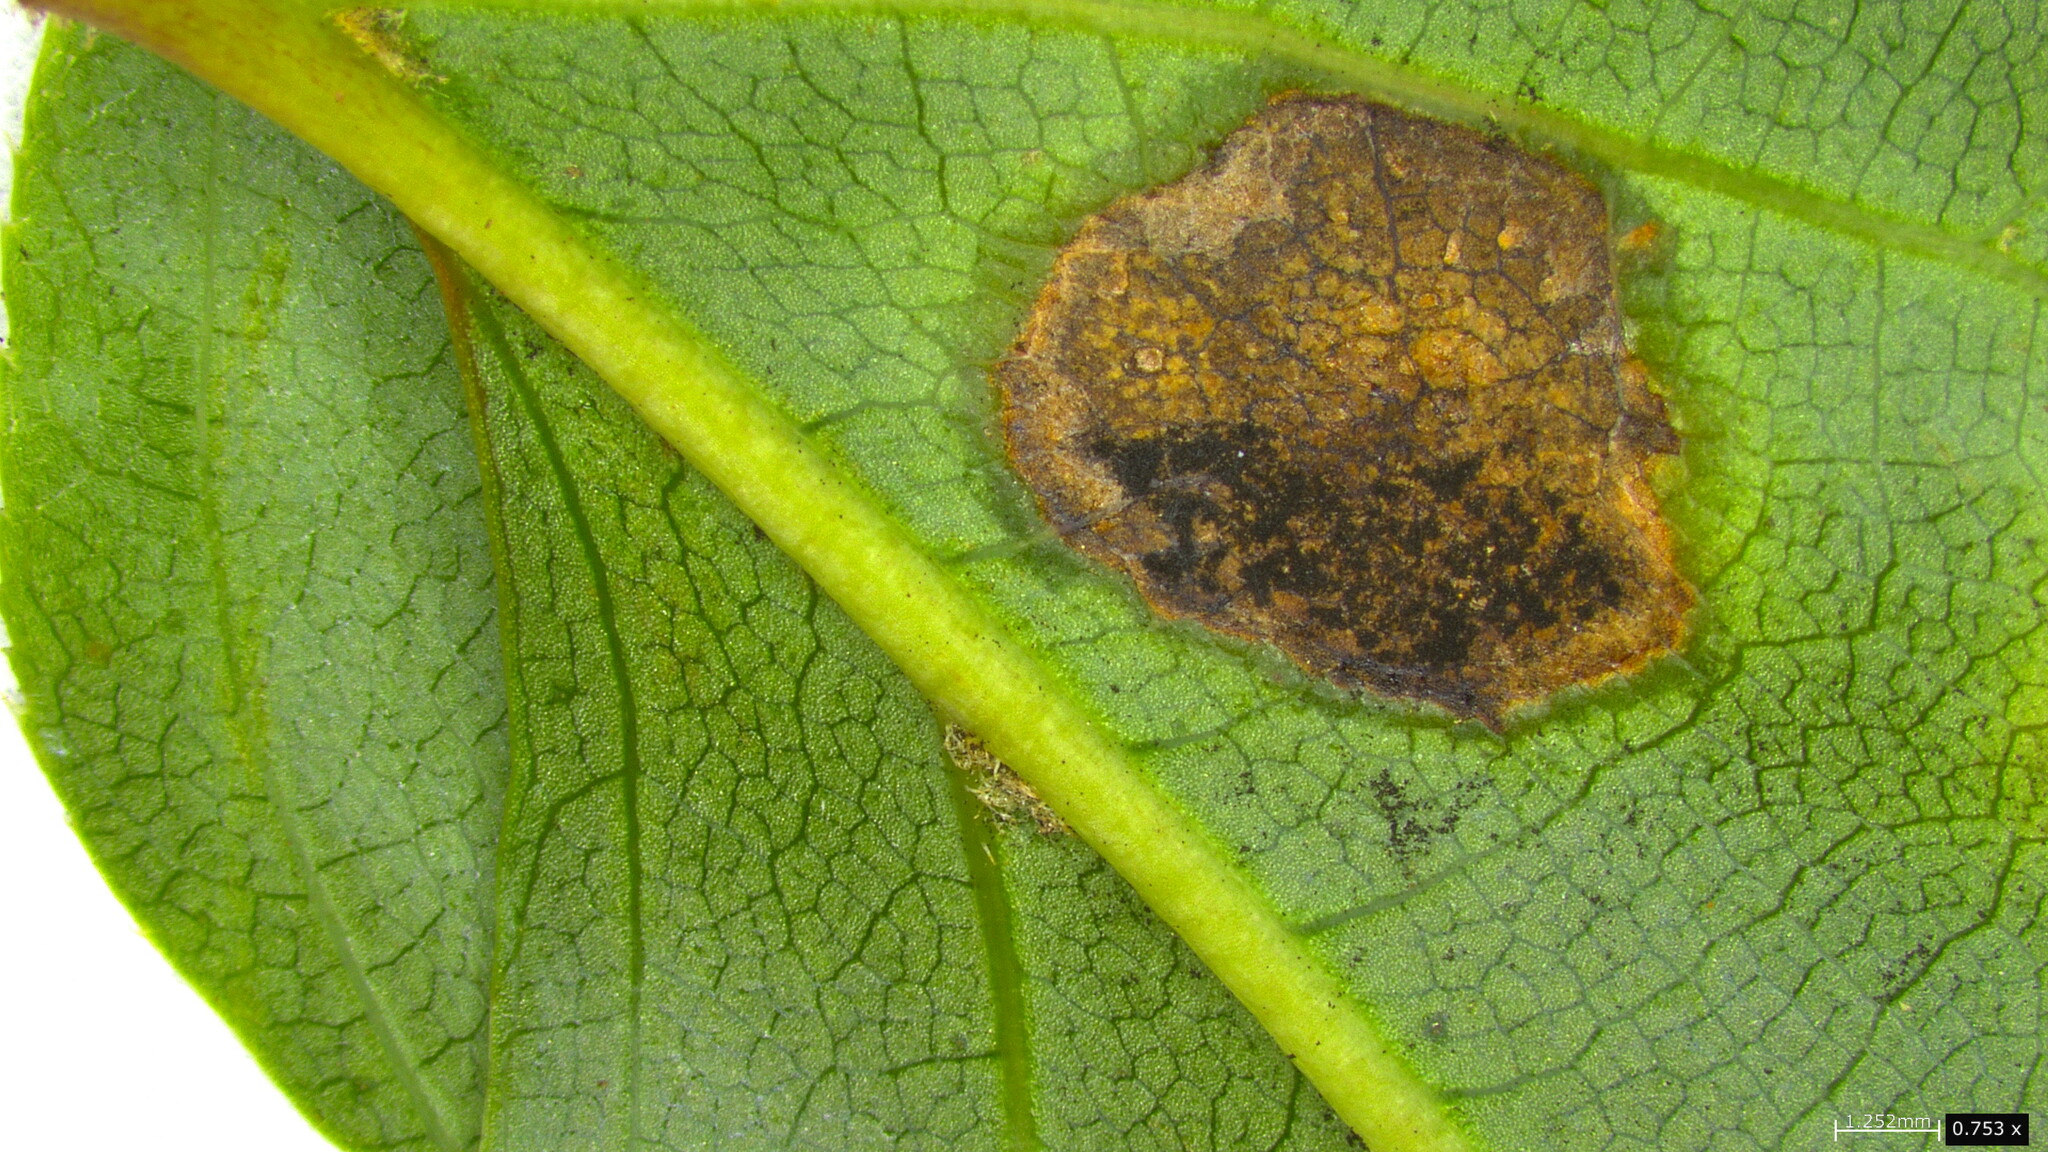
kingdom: Fungi
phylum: Basidiomycota
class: Pucciniomycetes
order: Pucciniales
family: Raveneliaceae
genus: Nyssopsora
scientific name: Nyssopsora asiatica
